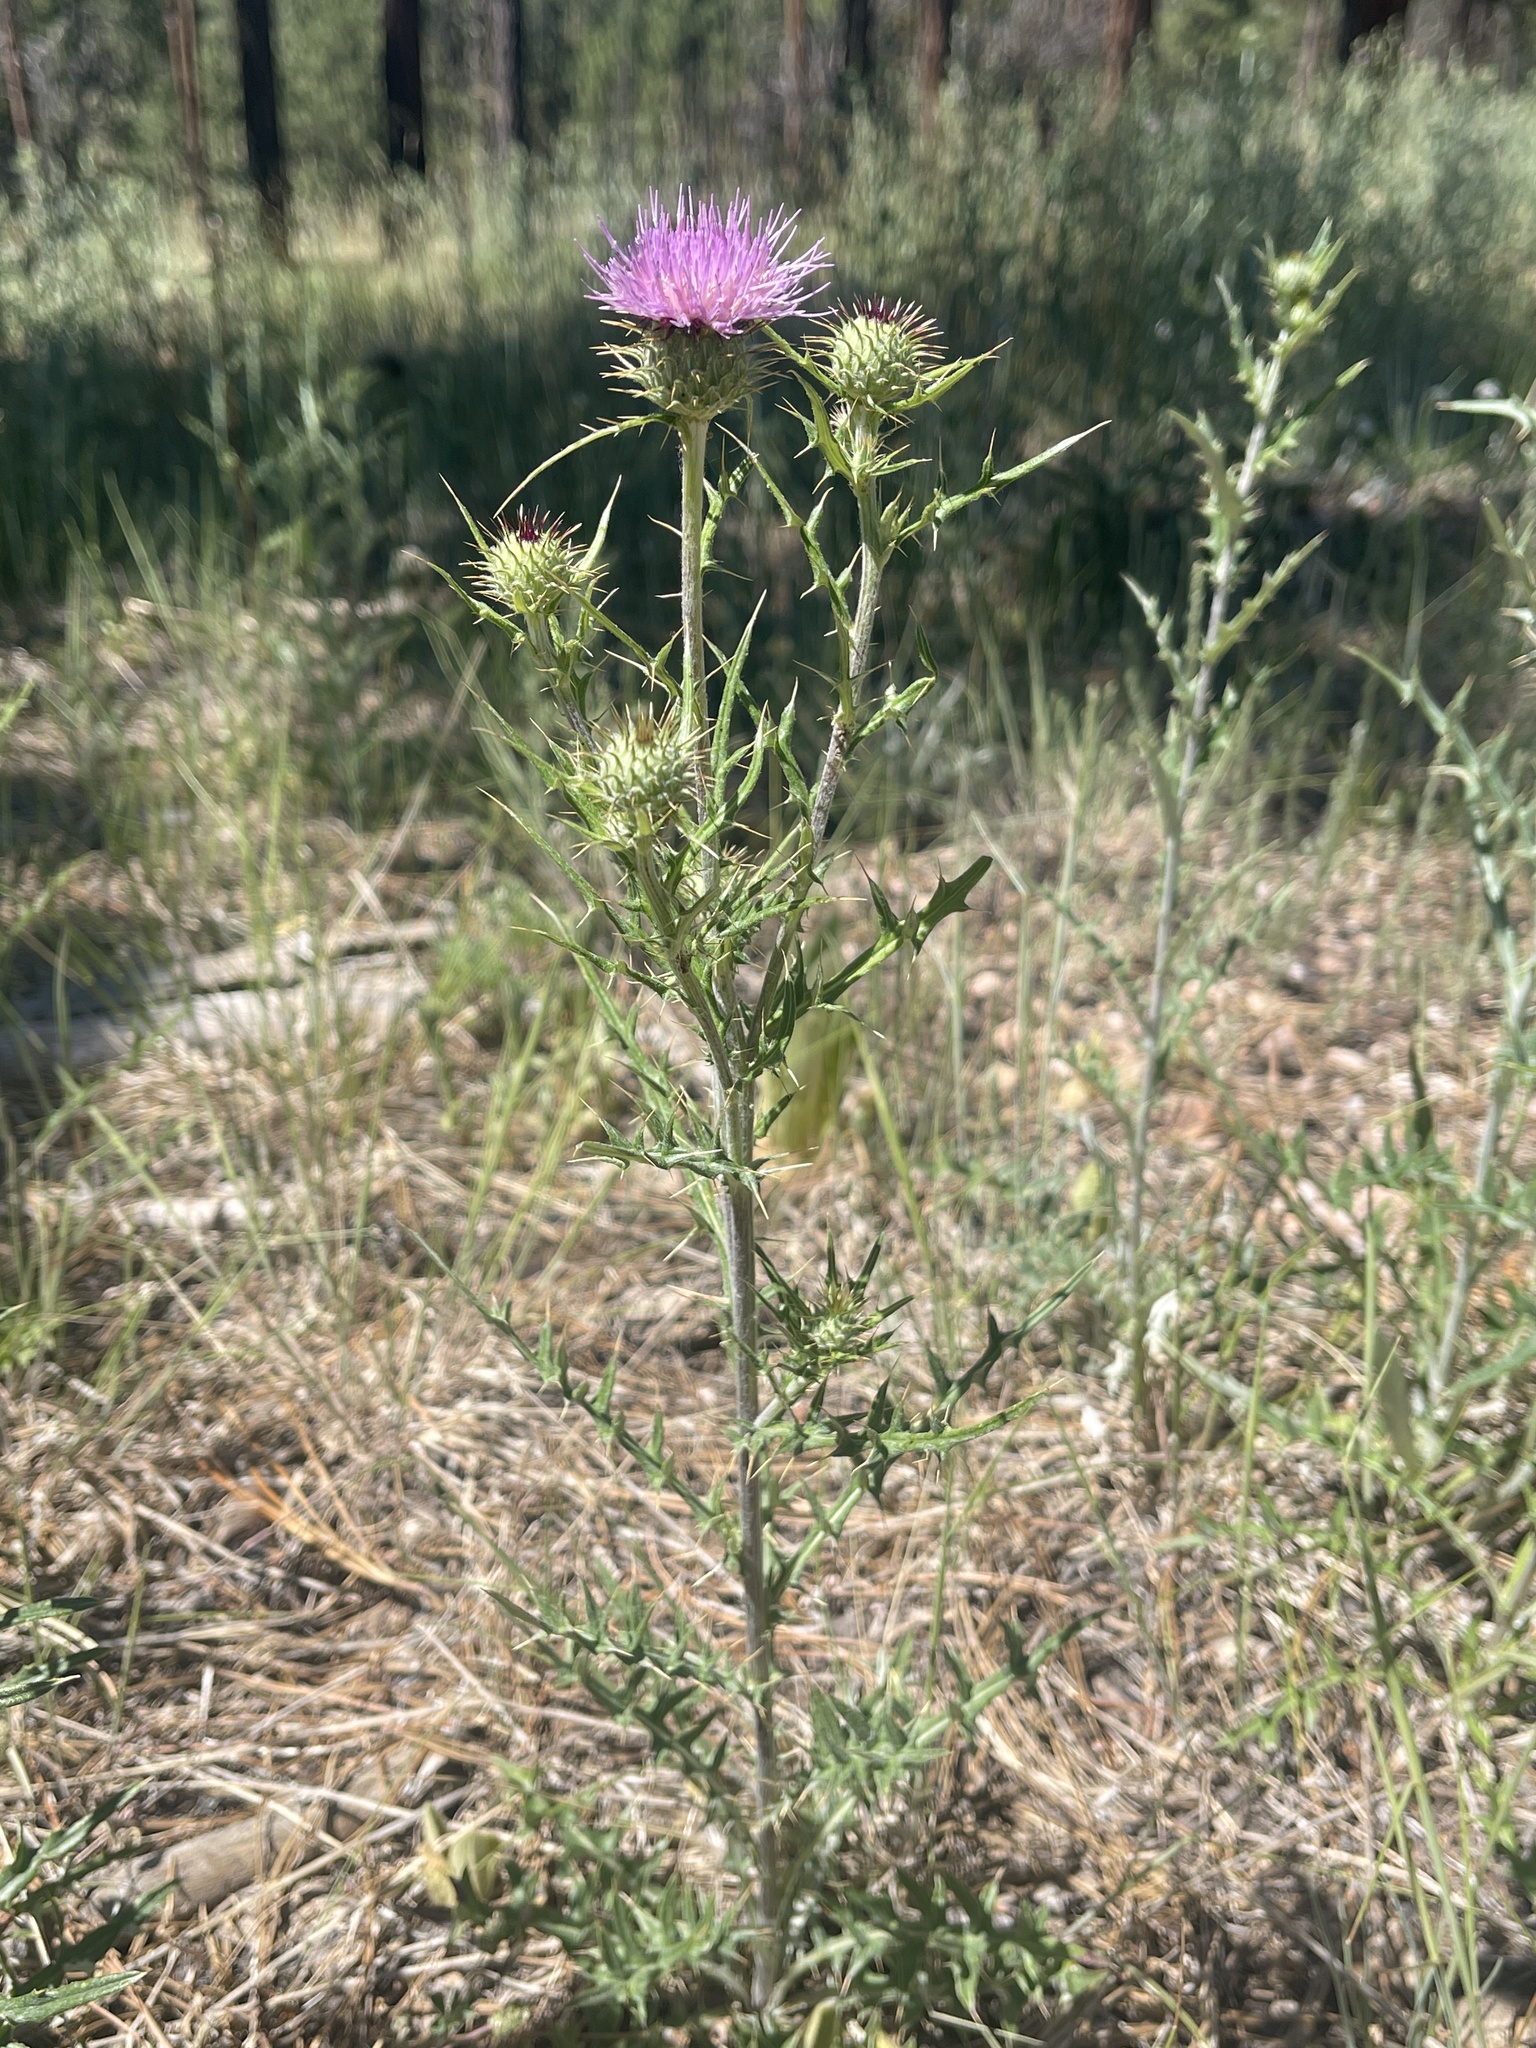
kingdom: Plantae
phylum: Tracheophyta
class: Magnoliopsida
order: Asterales
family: Asteraceae
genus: Cirsium
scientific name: Cirsium wheeleri
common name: Wheeler's thistle
